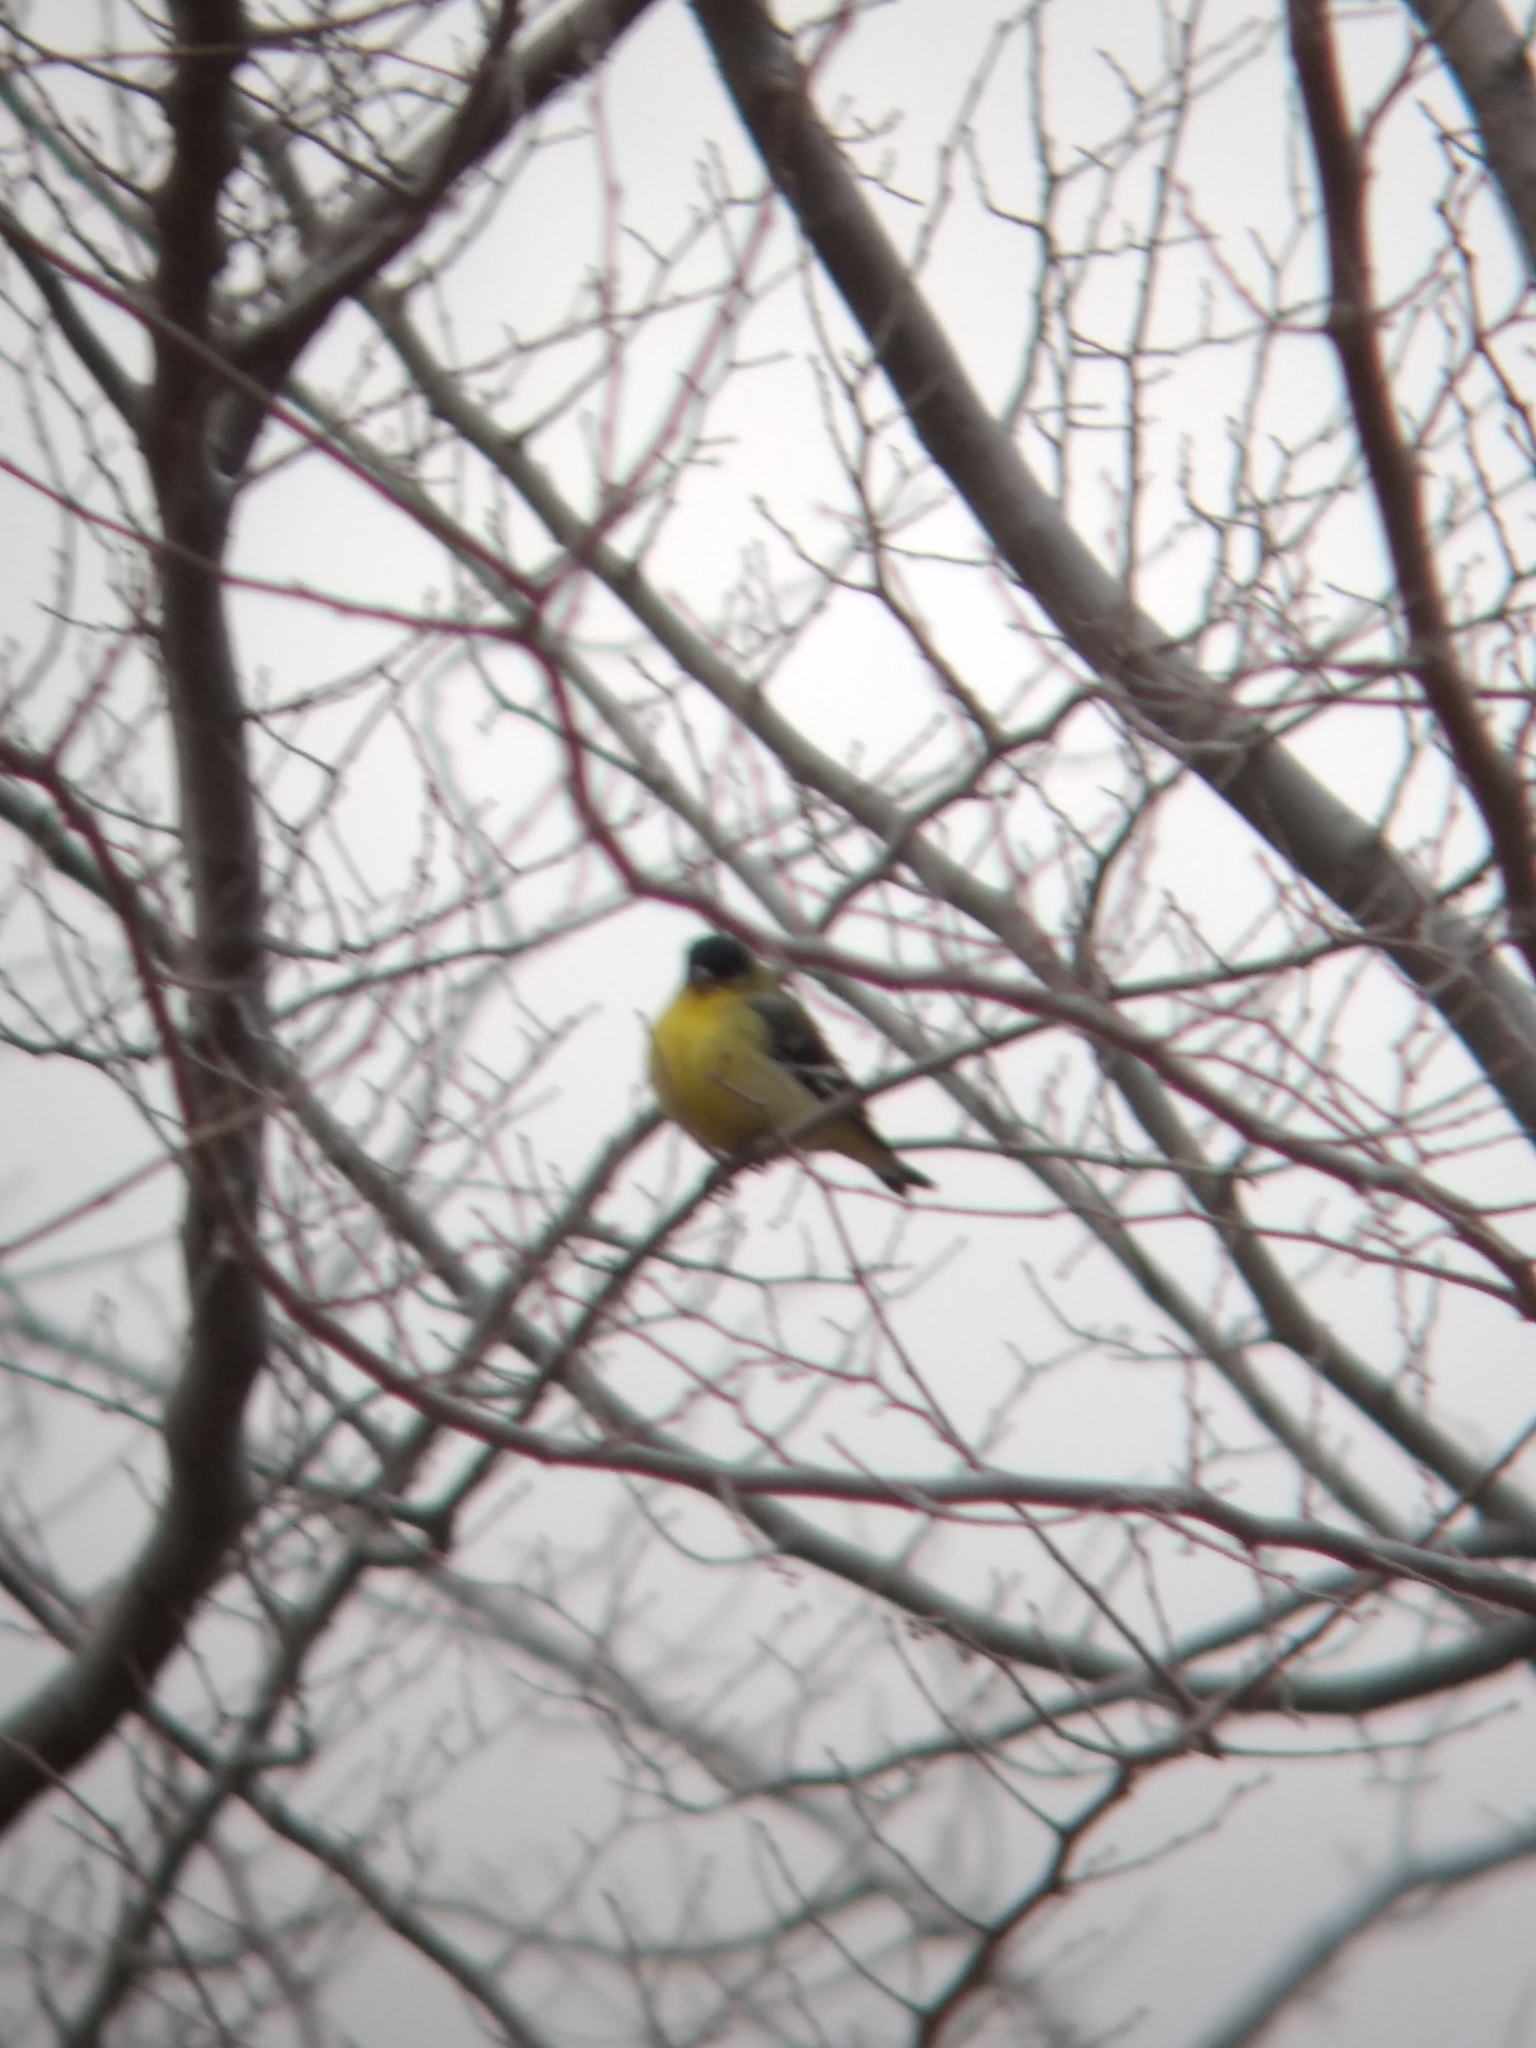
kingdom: Animalia
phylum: Chordata
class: Aves
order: Passeriformes
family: Fringillidae
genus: Spinus
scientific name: Spinus psaltria
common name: Lesser goldfinch
